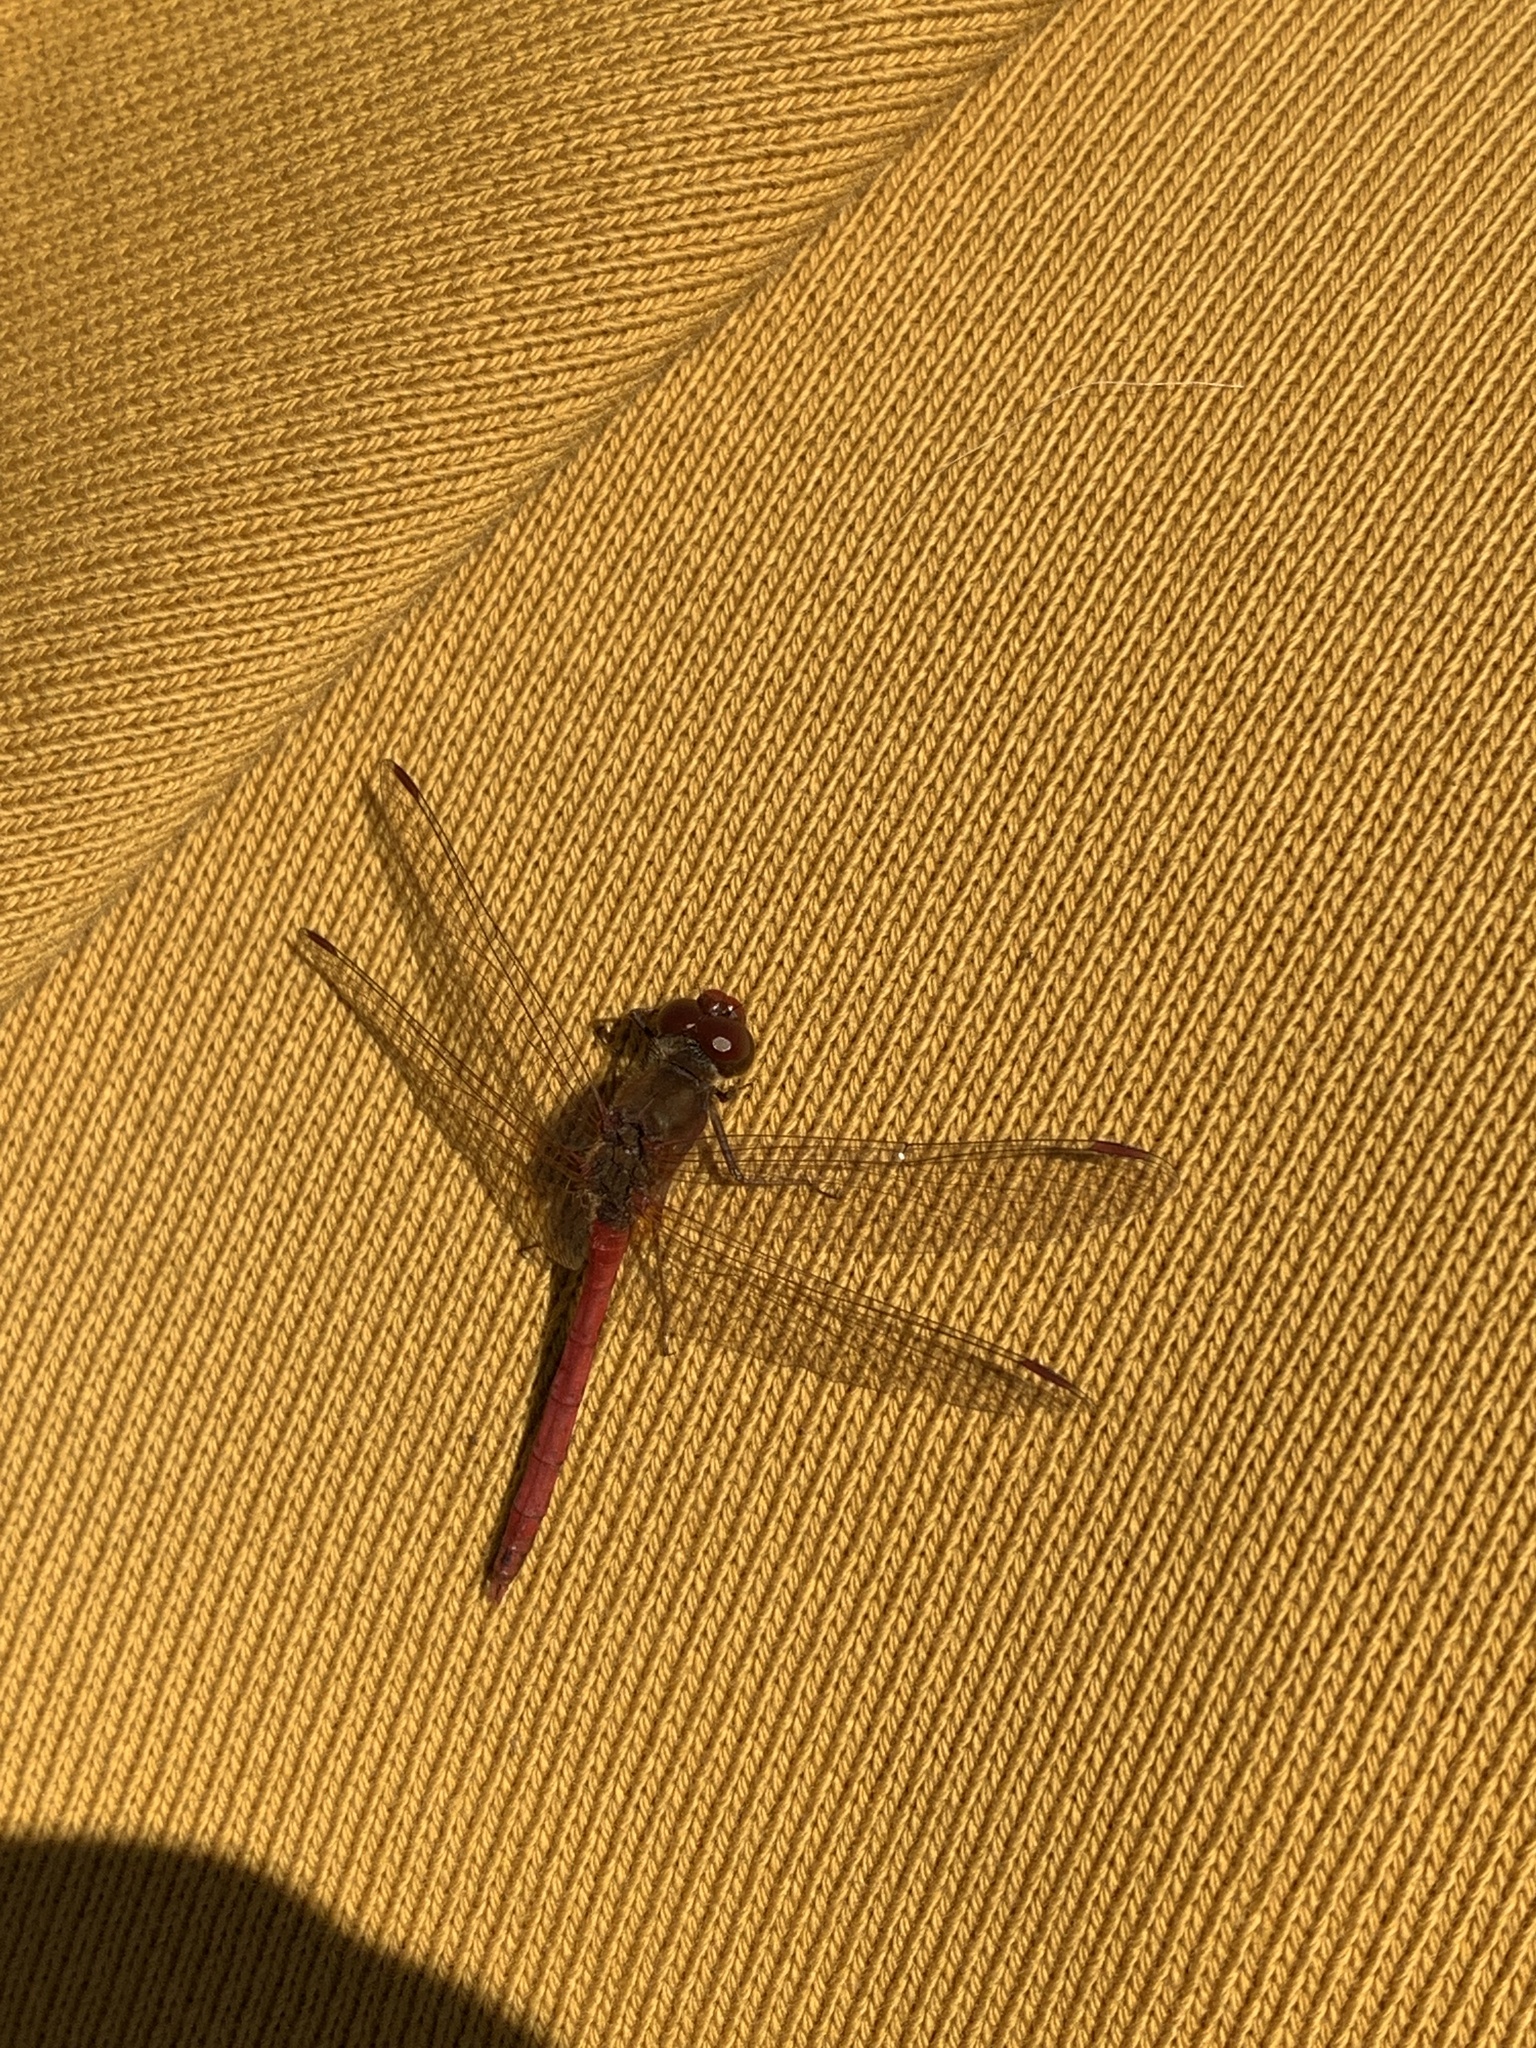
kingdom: Animalia
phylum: Arthropoda
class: Insecta
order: Odonata
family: Libellulidae
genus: Sympetrum
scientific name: Sympetrum vicinum
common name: Autumn meadowhawk
